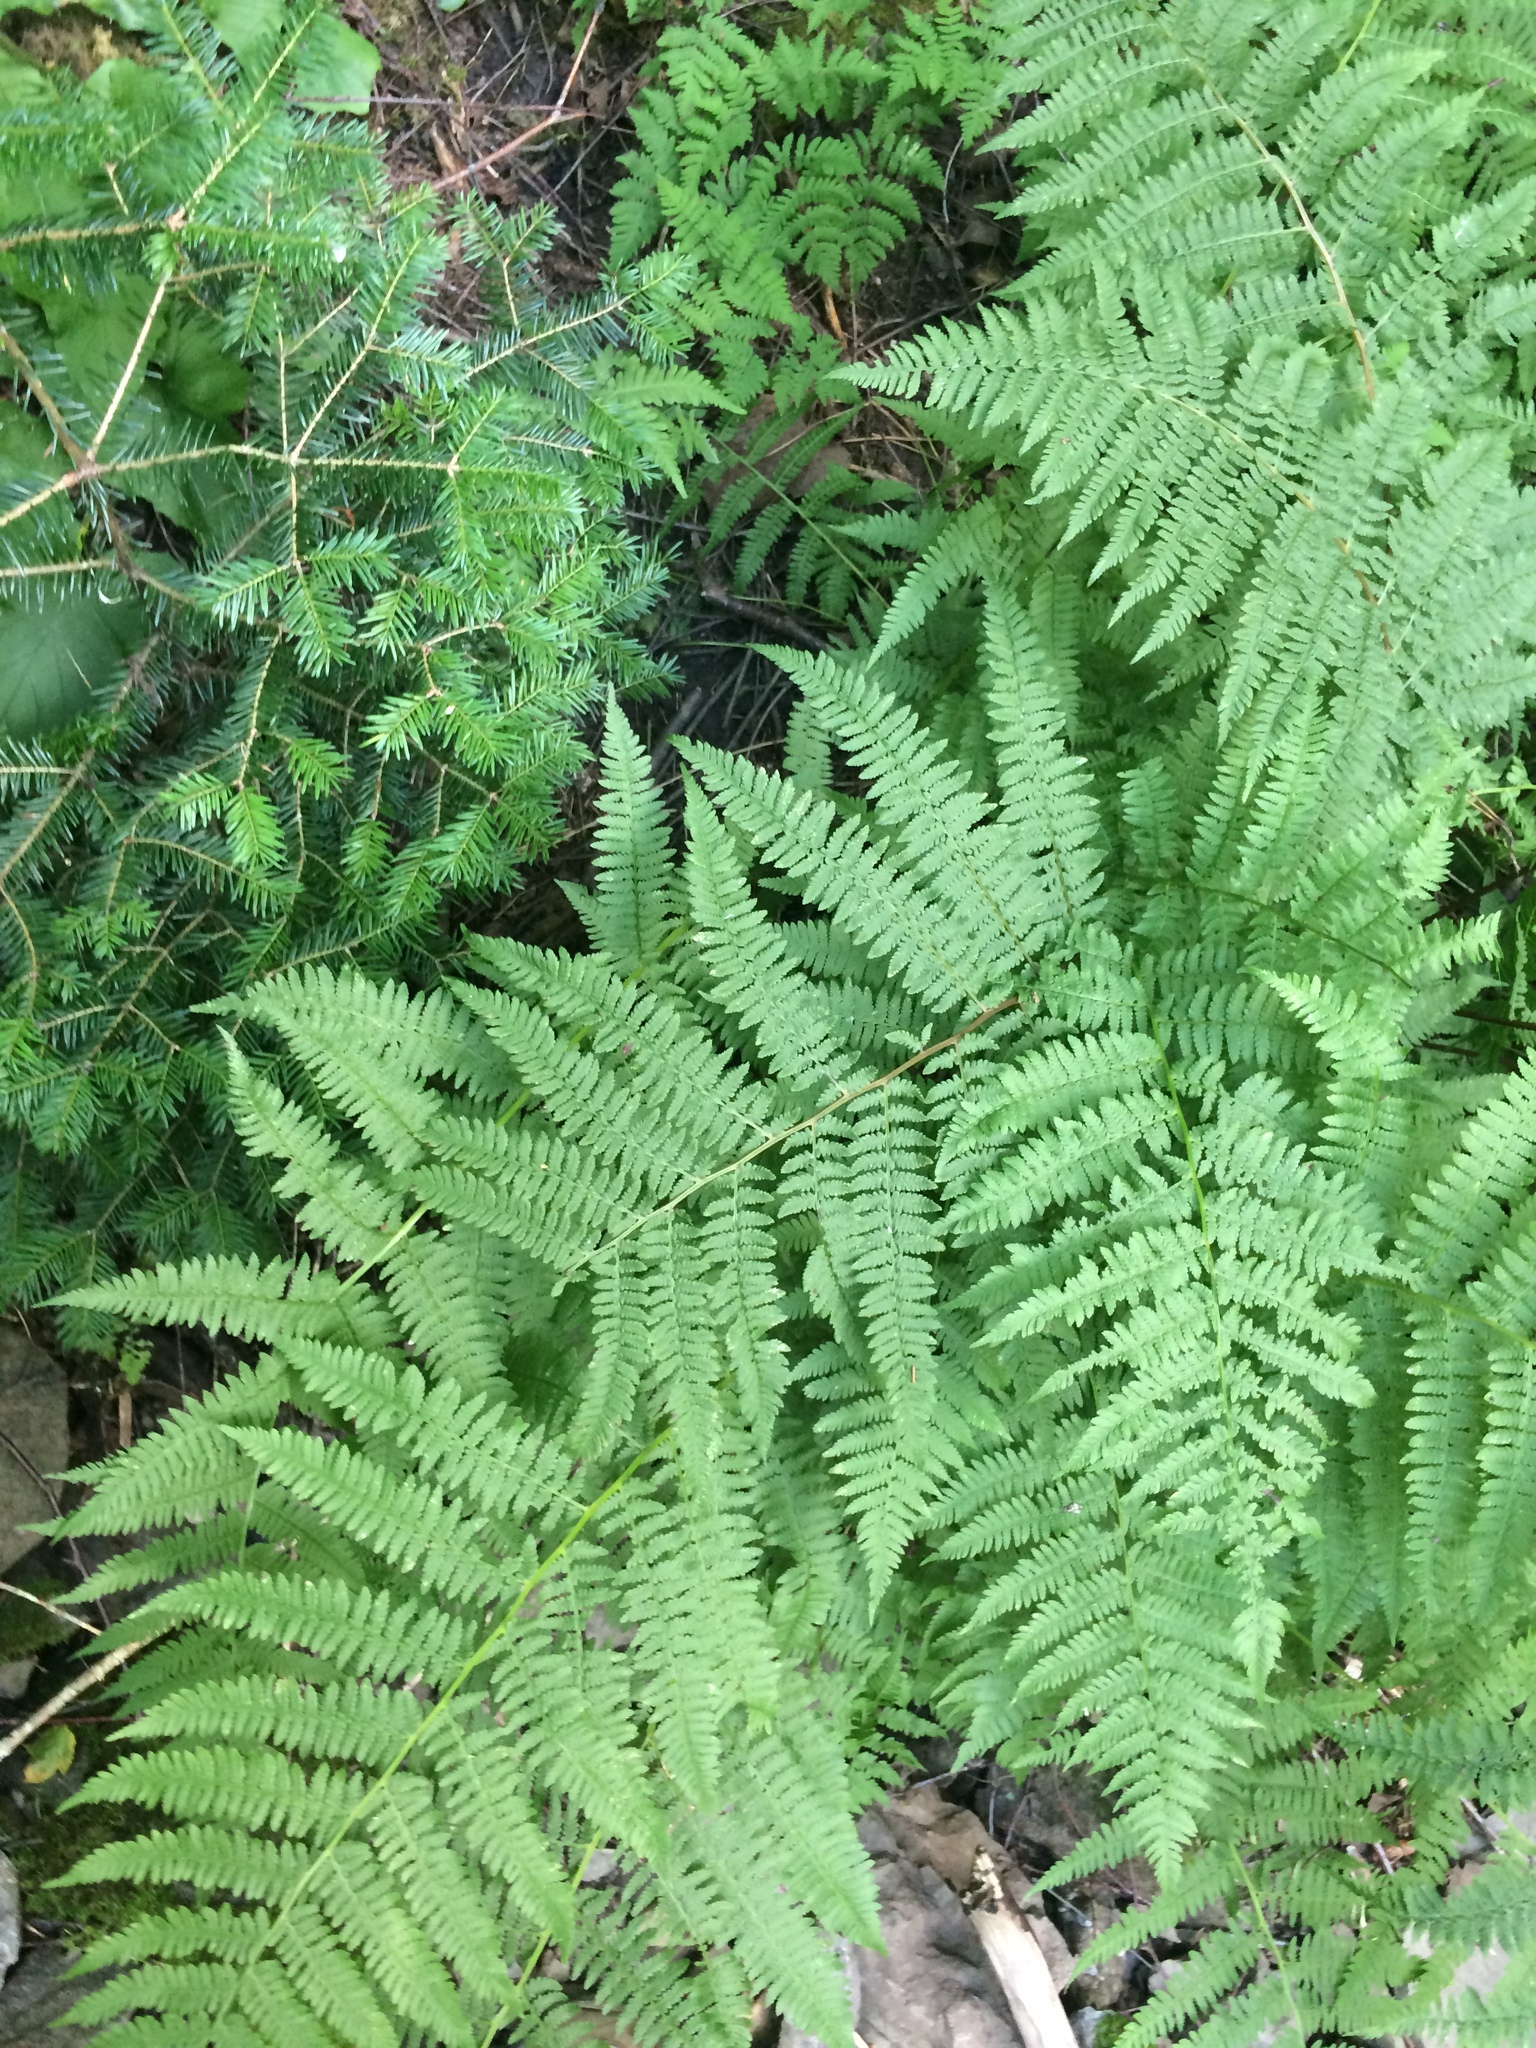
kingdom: Plantae
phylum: Tracheophyta
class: Pinopsida
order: Pinales
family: Pinaceae
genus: Abies
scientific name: Abies balsamea
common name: Balsam fir
